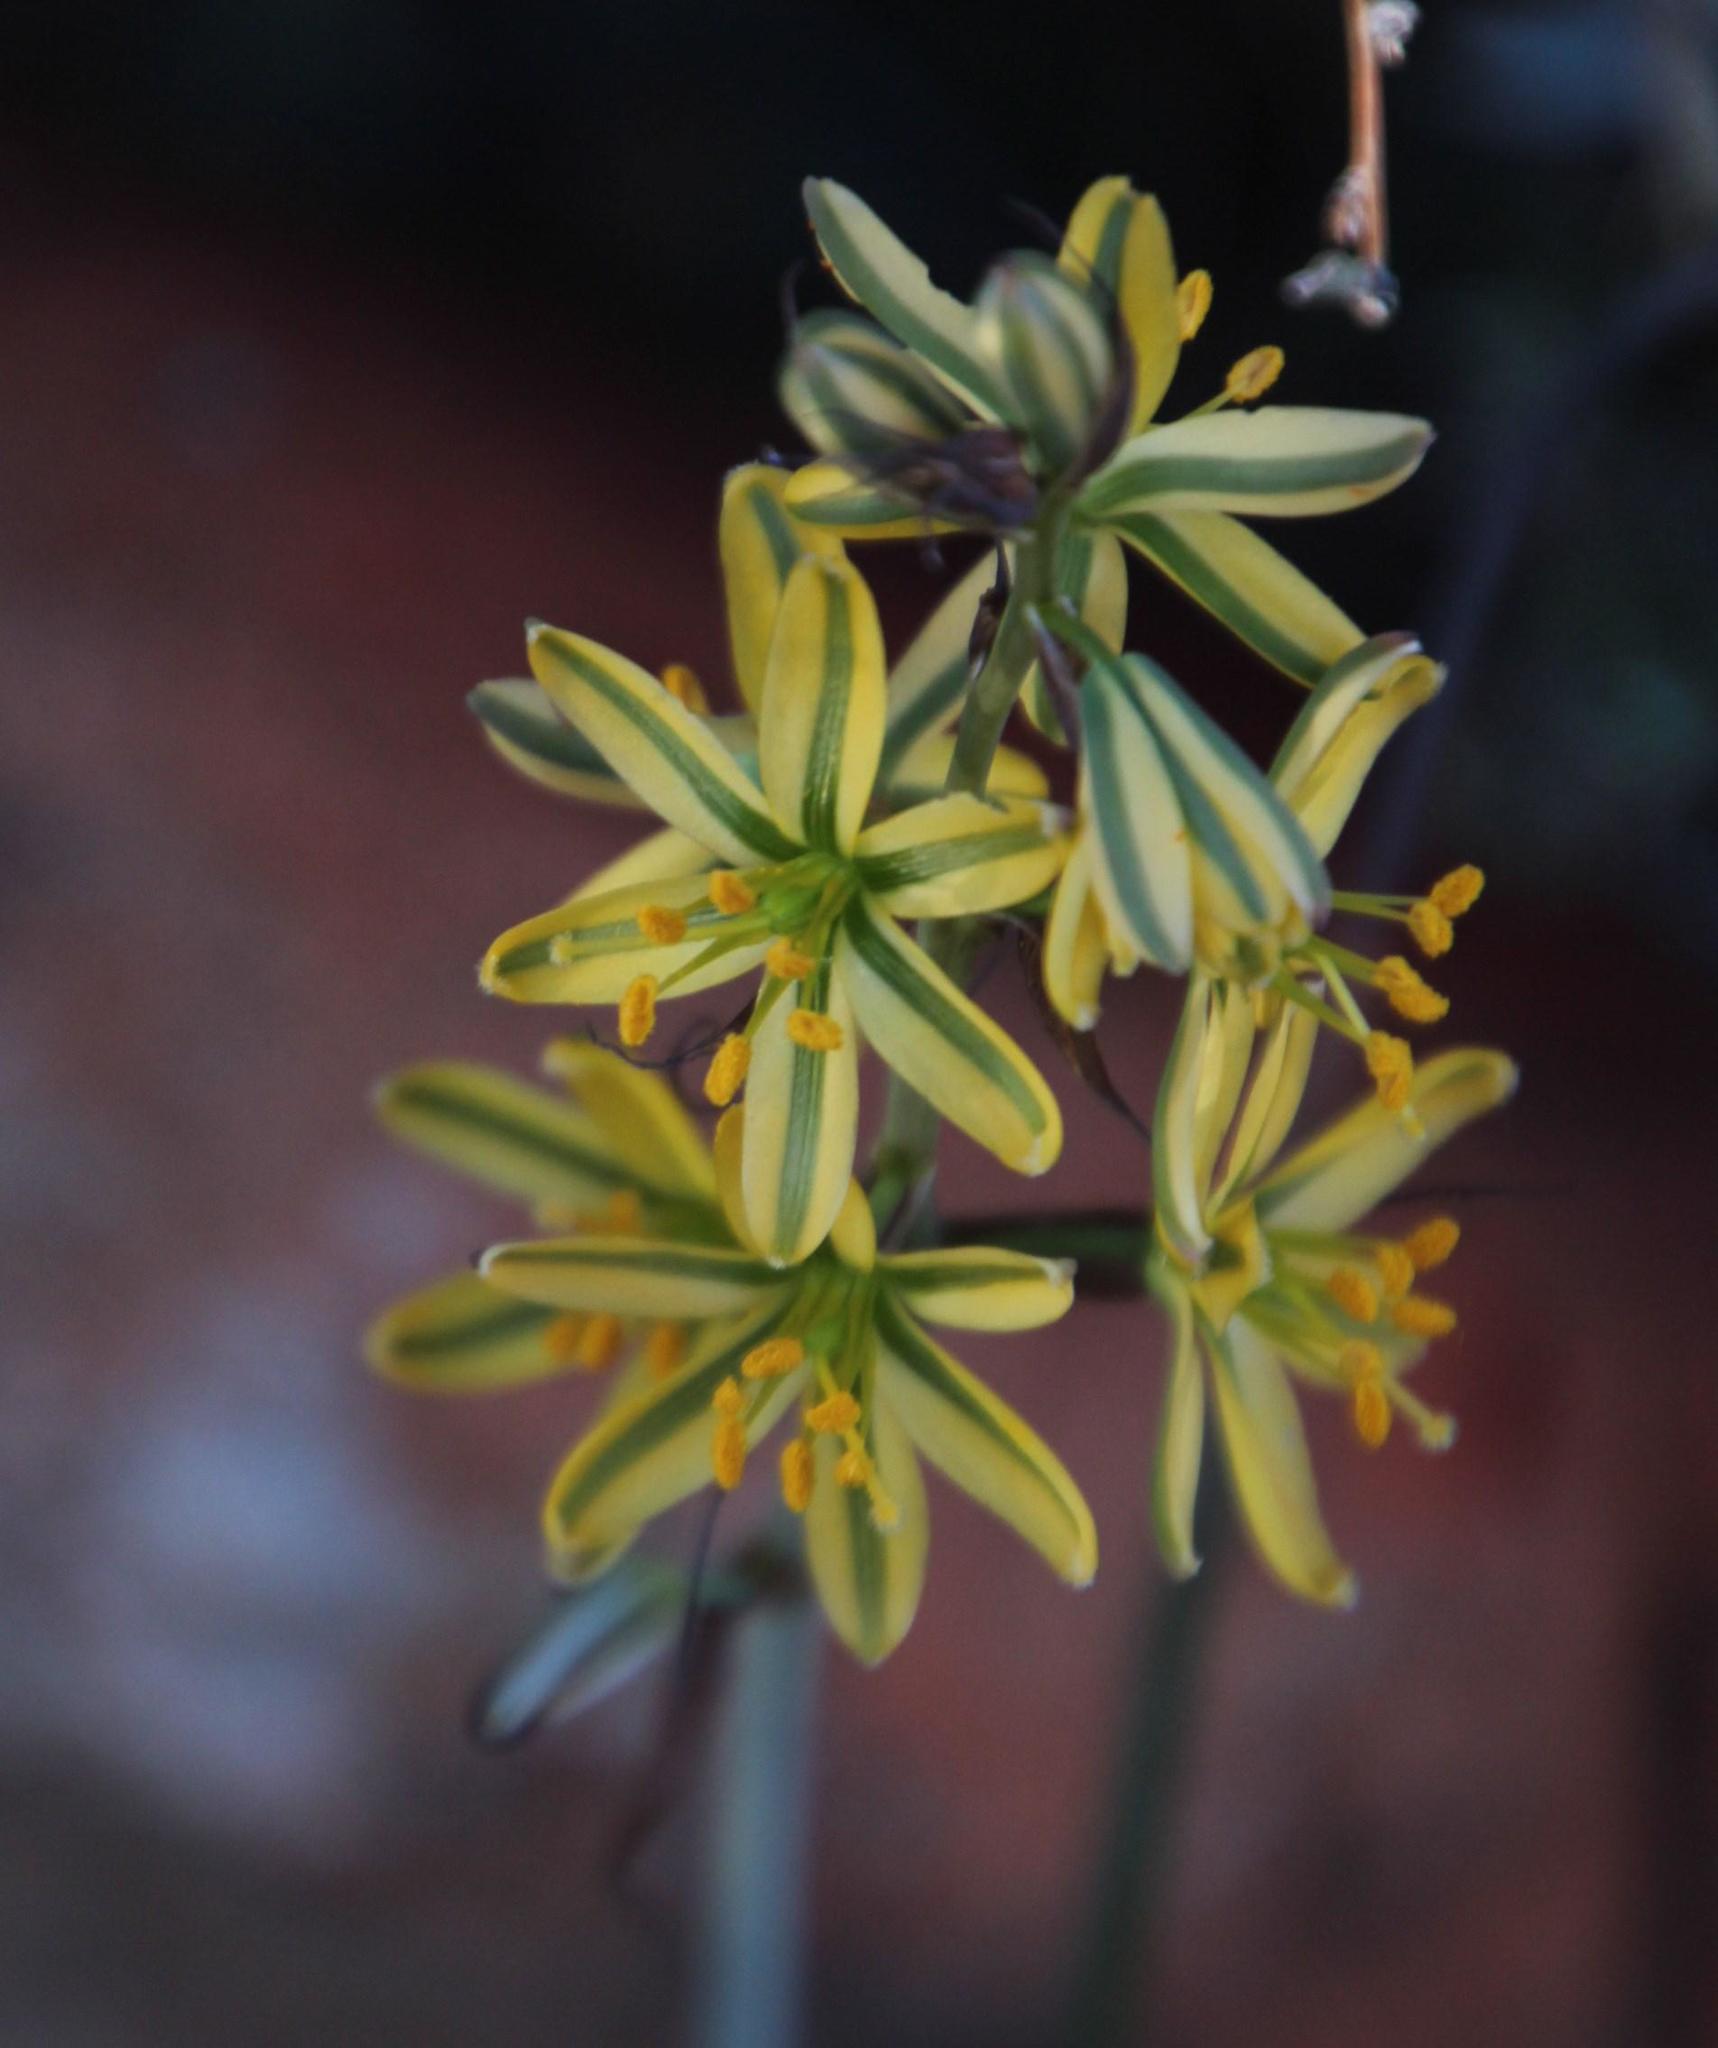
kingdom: Plantae
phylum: Tracheophyta
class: Liliopsida
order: Asparagales
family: Asparagaceae
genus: Albuca
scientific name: Albuca suaveolens
